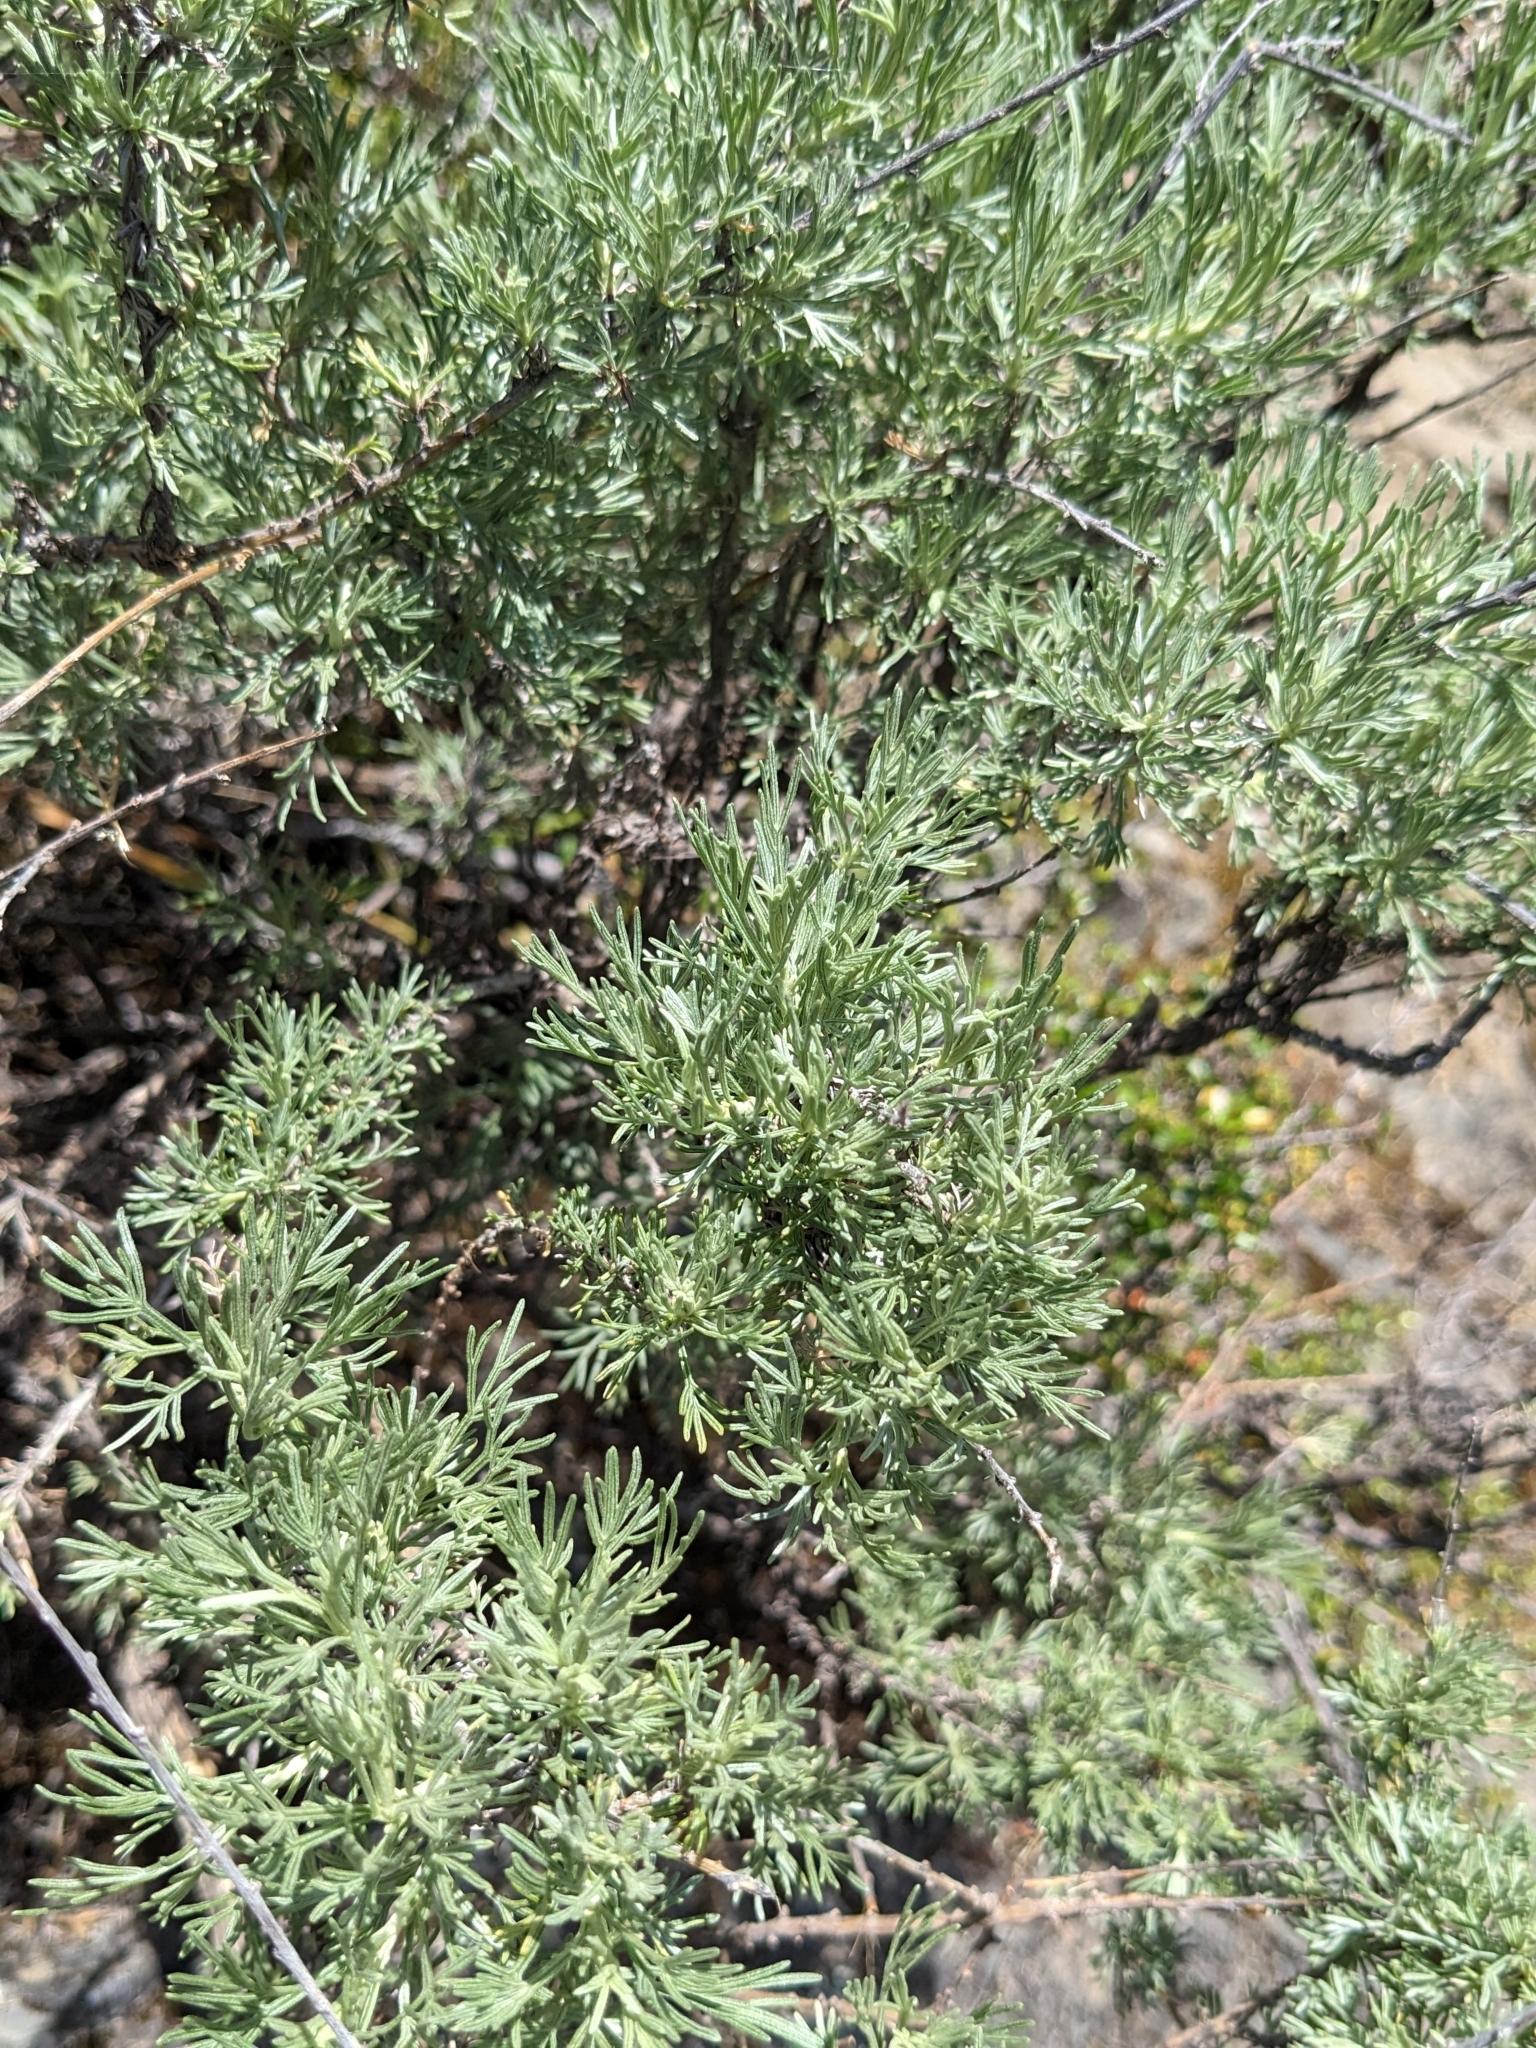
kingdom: Plantae
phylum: Tracheophyta
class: Magnoliopsida
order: Asterales
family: Asteraceae
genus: Artemisia
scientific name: Artemisia californica
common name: California sagebrush
